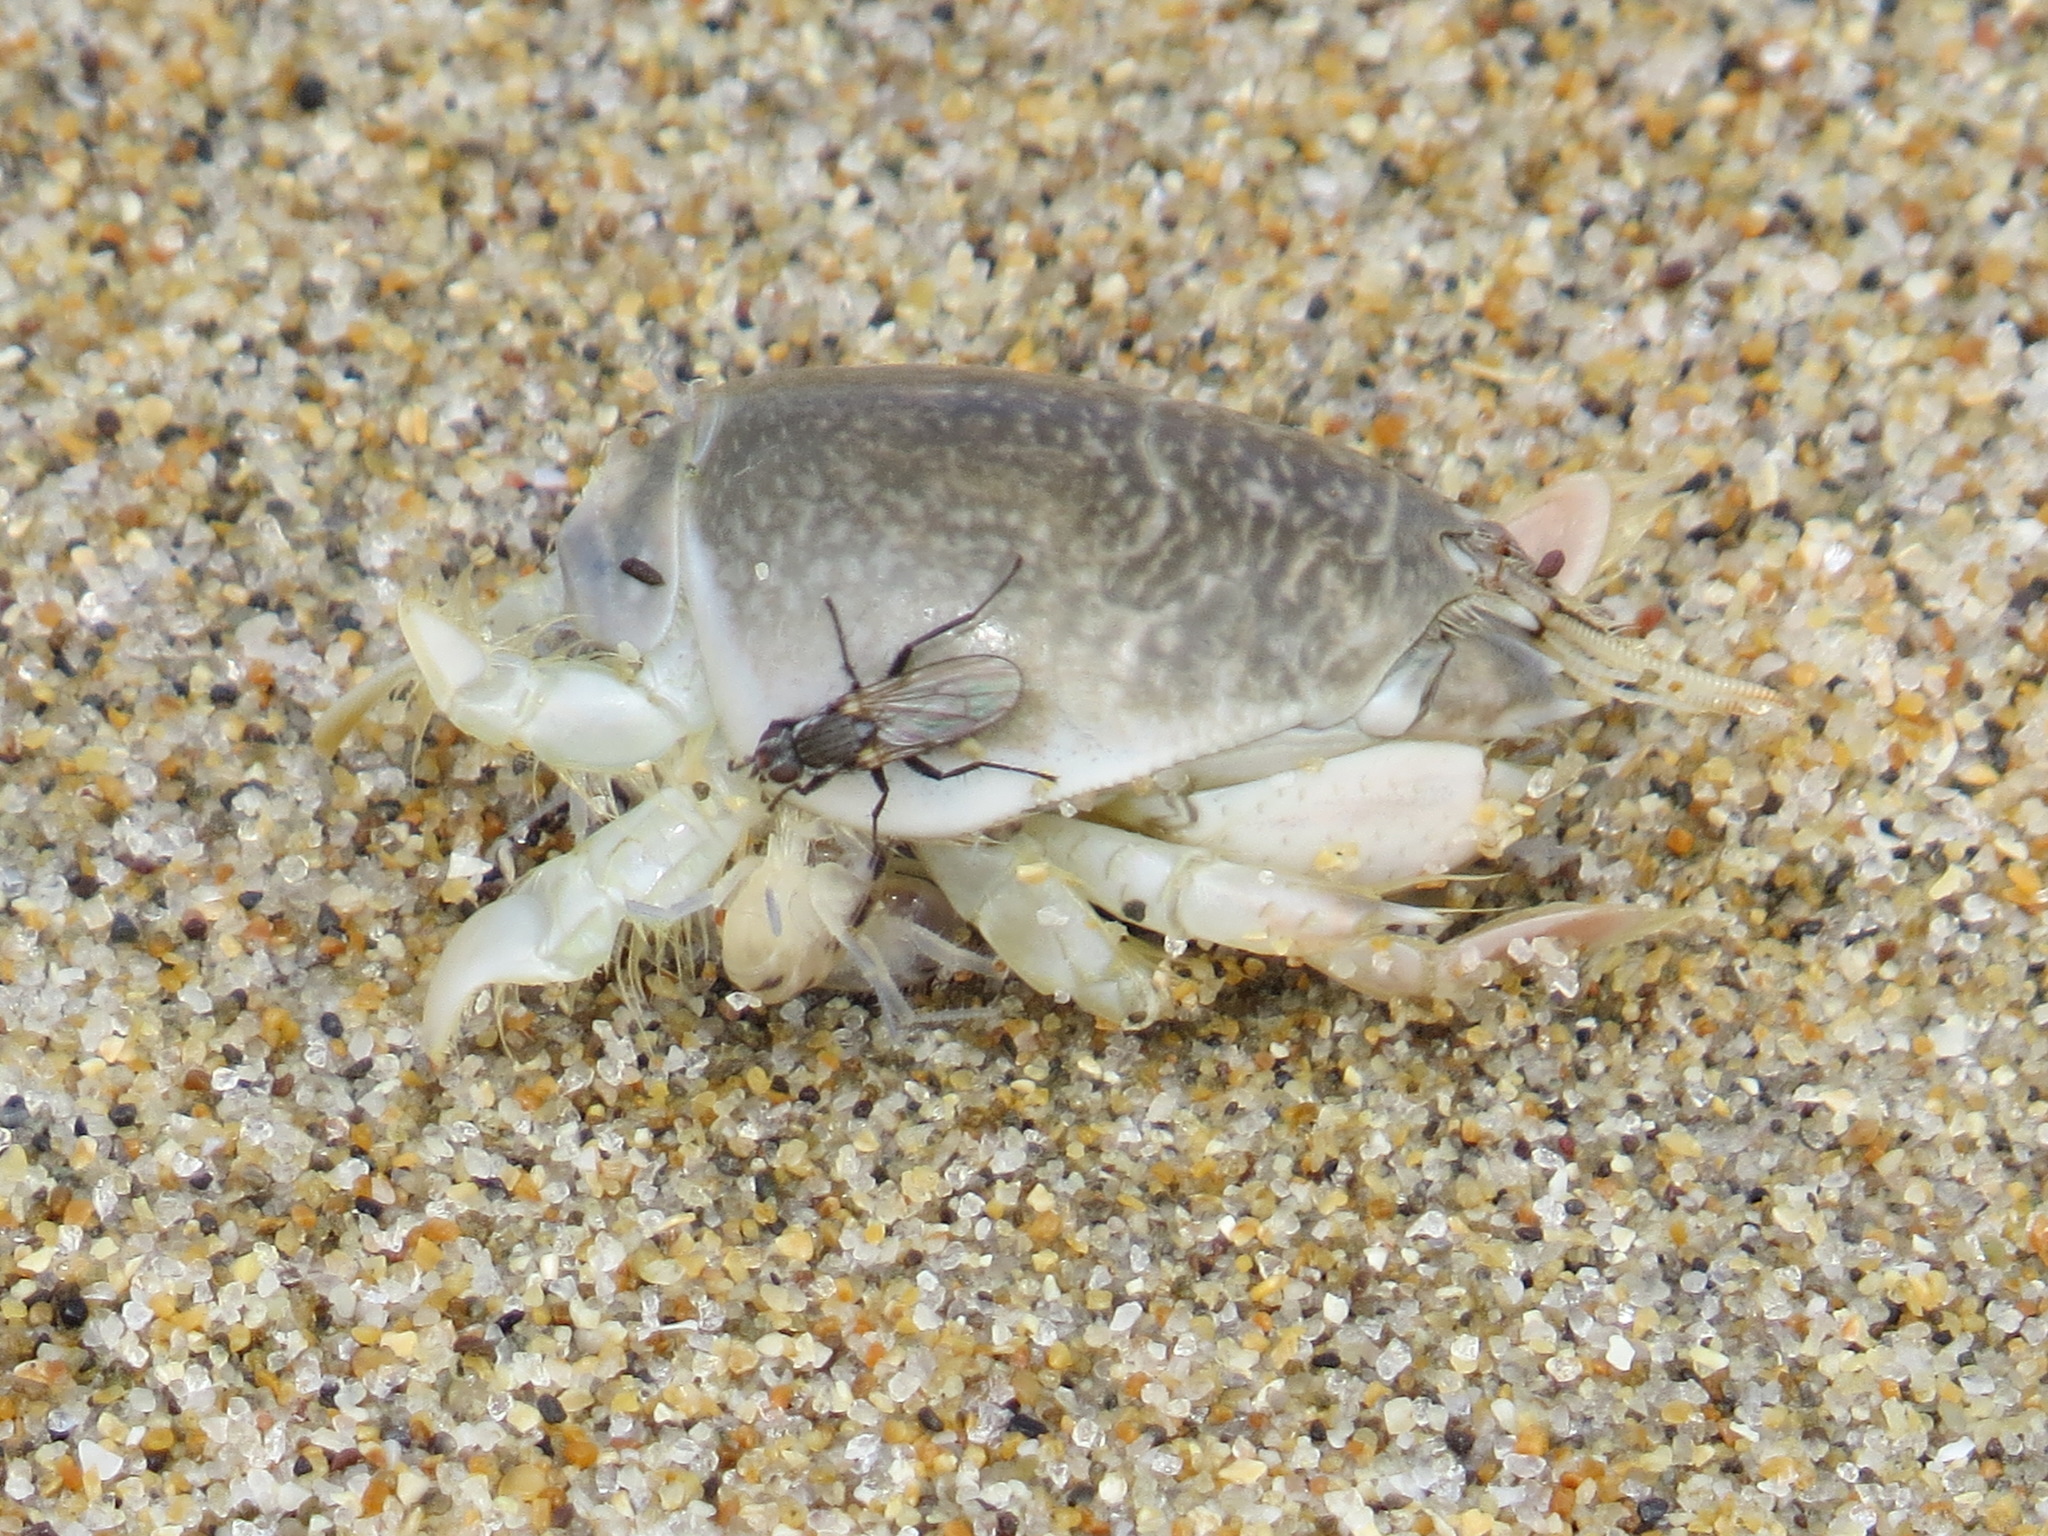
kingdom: Animalia
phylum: Arthropoda
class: Malacostraca
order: Decapoda
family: Hippidae
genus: Emerita
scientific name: Emerita analoga
